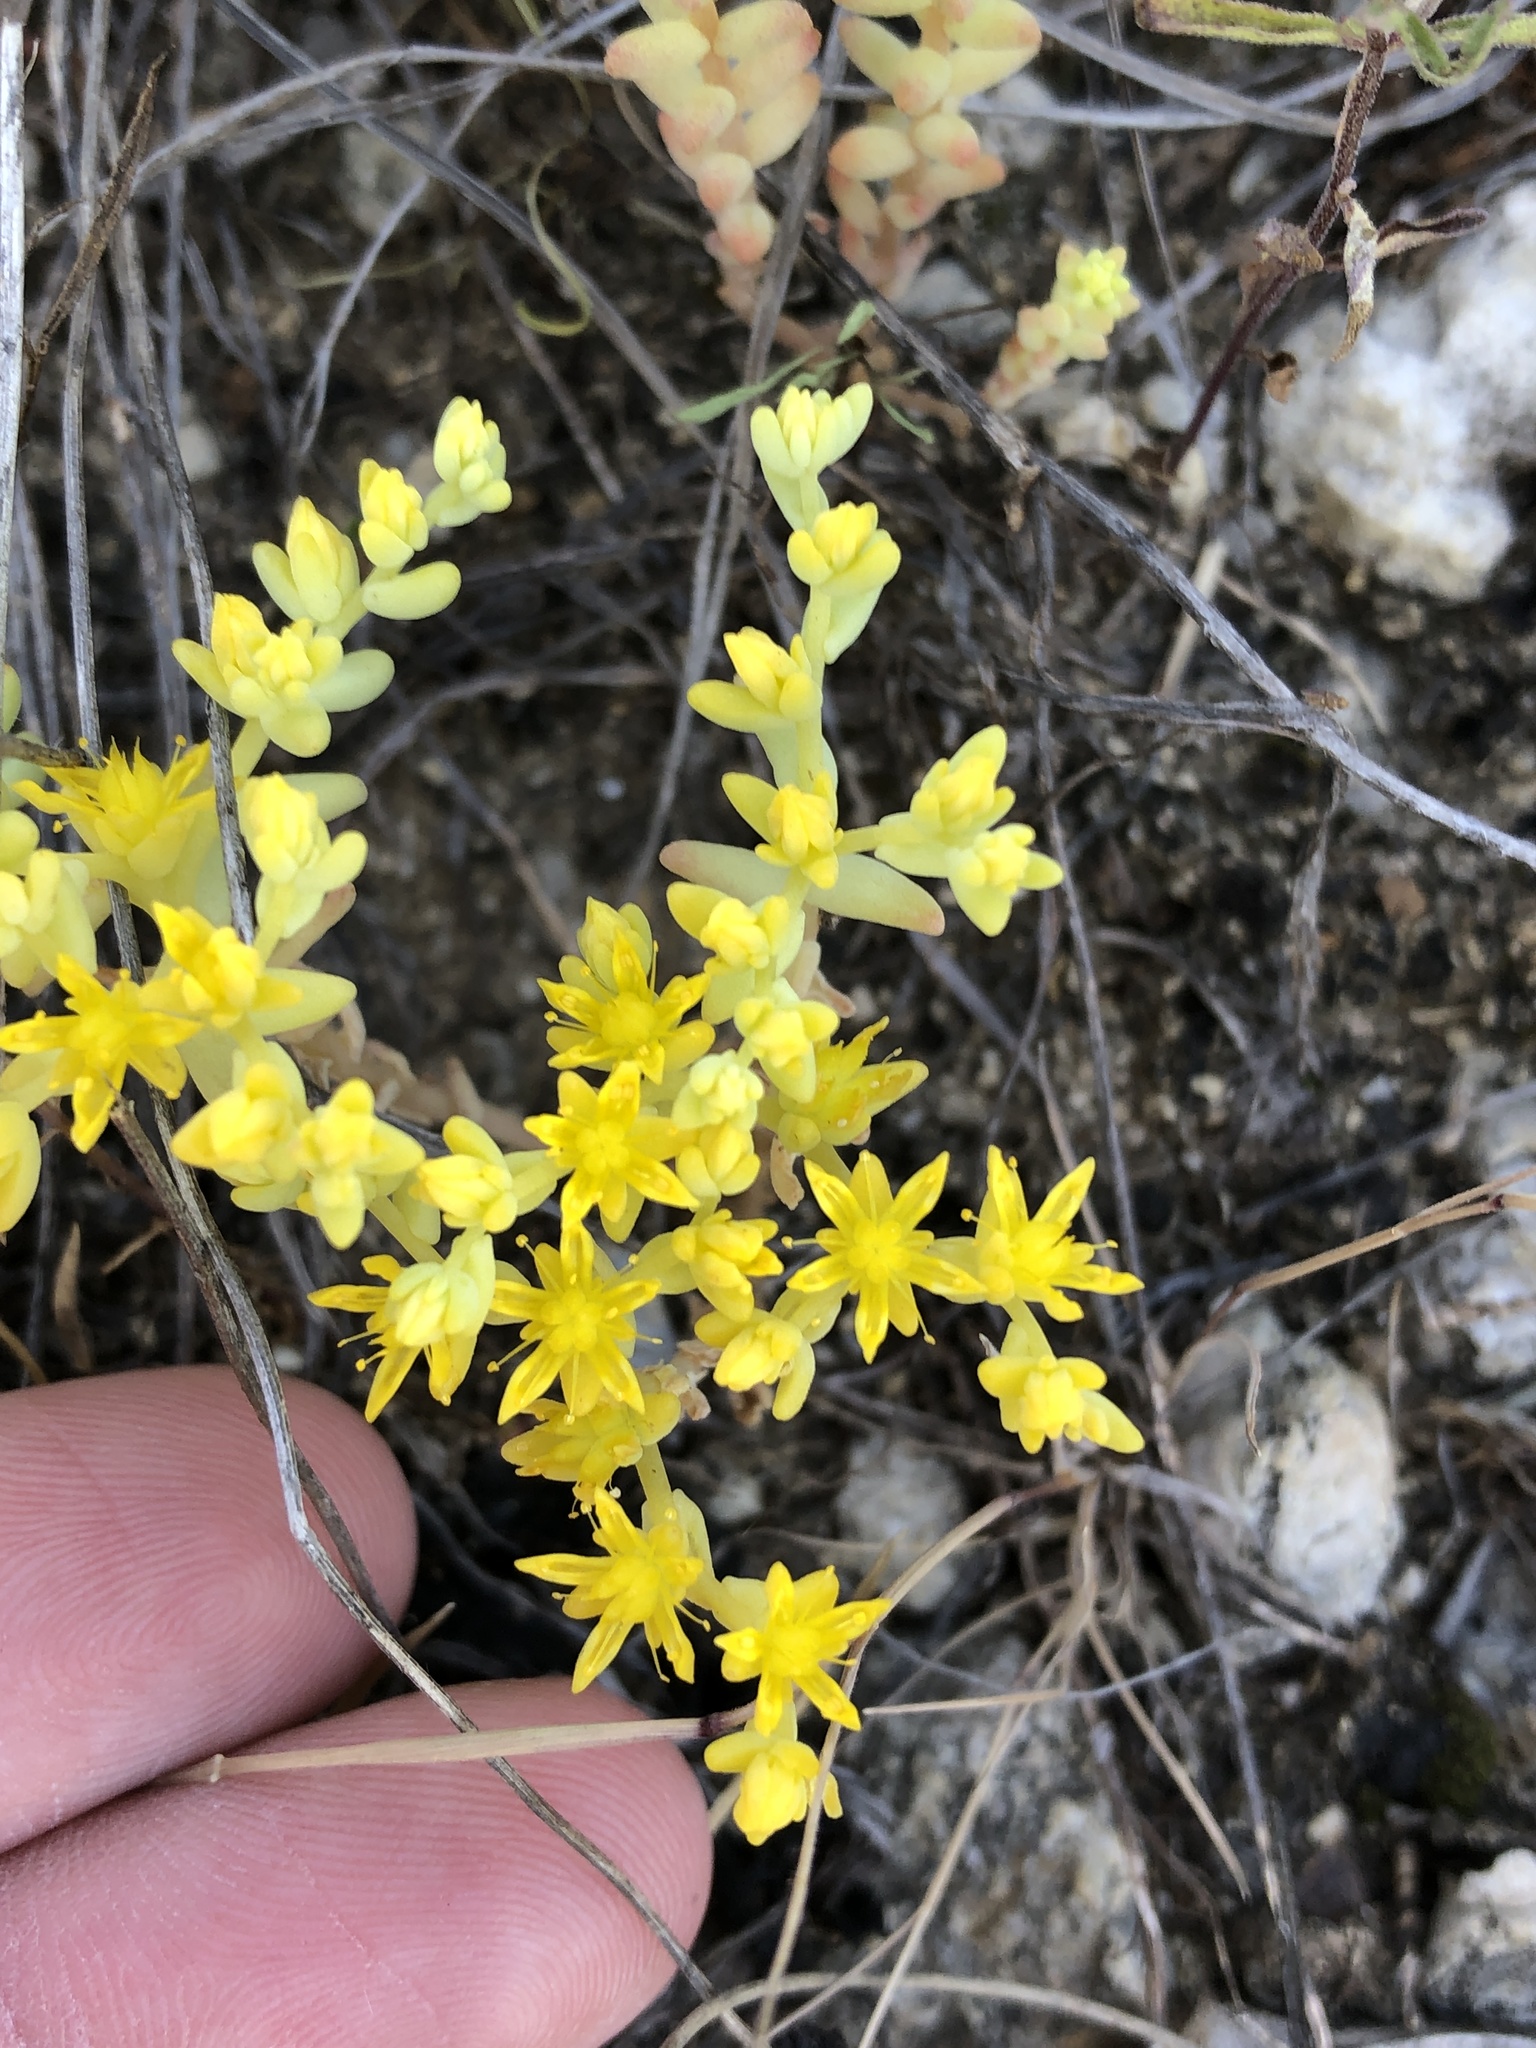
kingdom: Plantae
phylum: Tracheophyta
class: Magnoliopsida
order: Saxifragales
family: Crassulaceae
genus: Sedum
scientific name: Sedum nuttallii
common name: Yellow stonecrop
